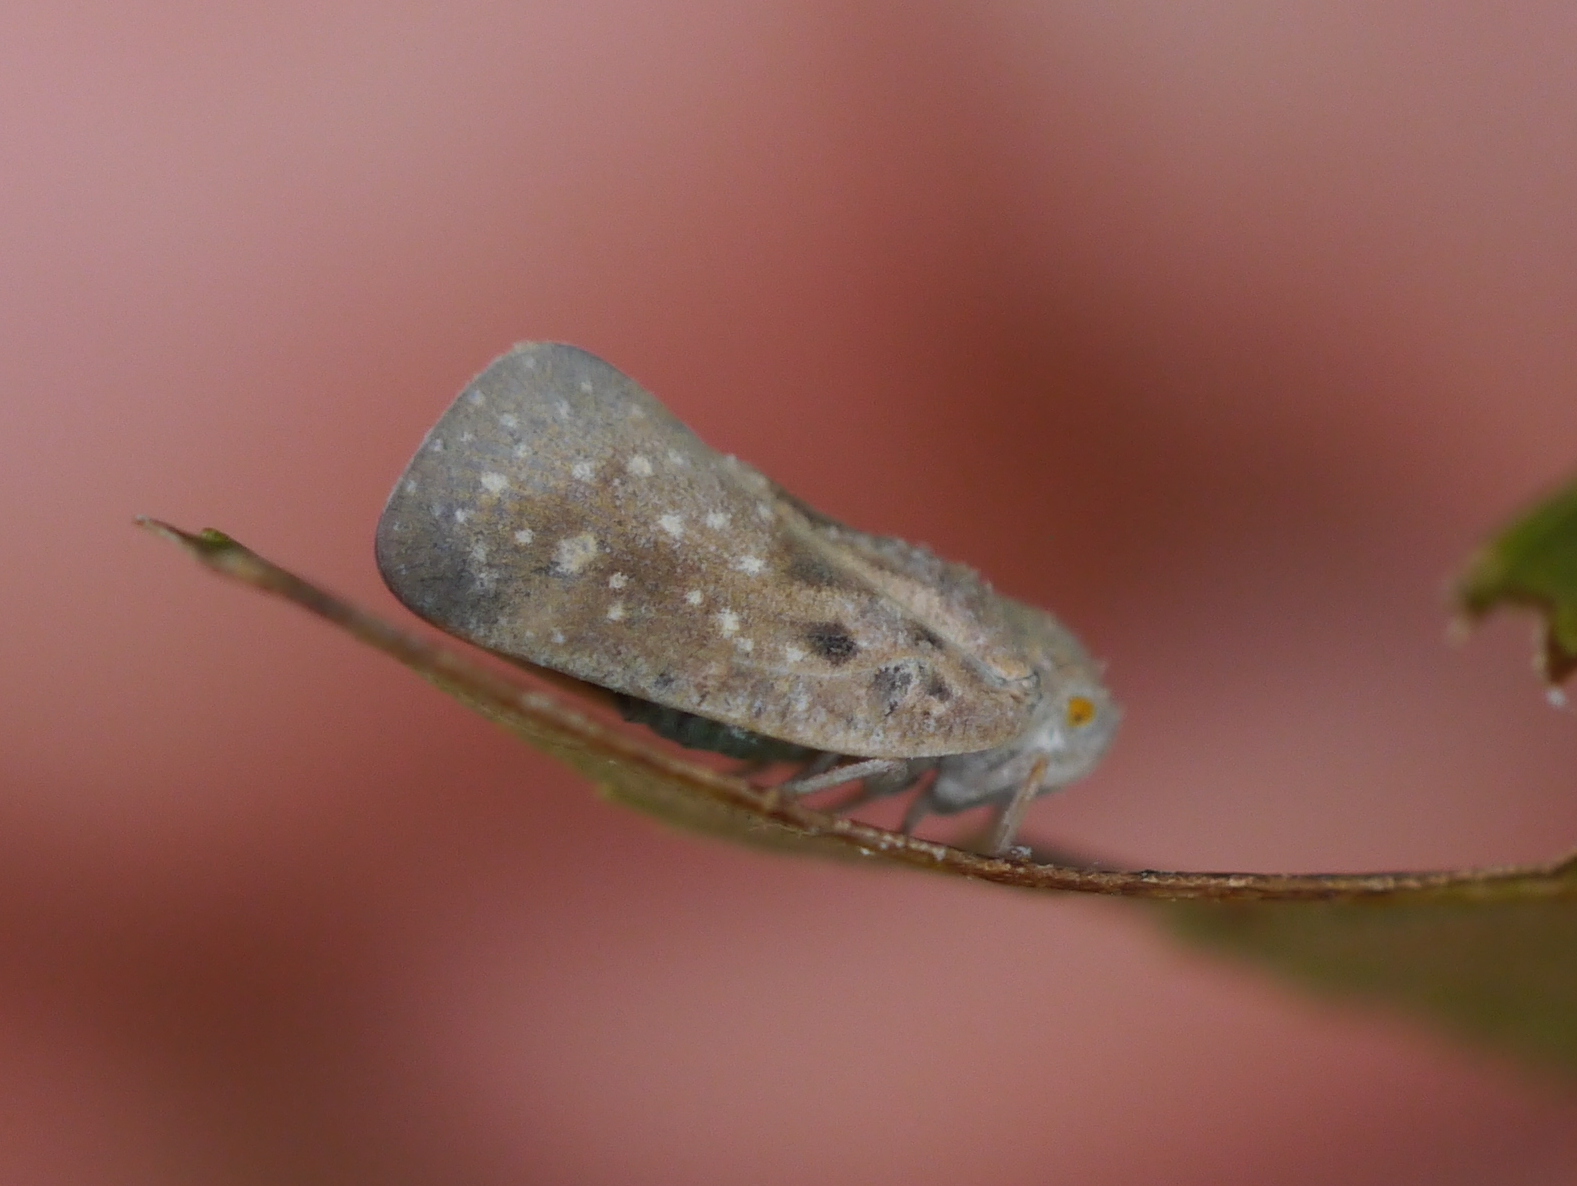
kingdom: Animalia
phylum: Arthropoda
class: Insecta
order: Hemiptera
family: Flatidae
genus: Metcalfa
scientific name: Metcalfa pruinosa
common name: Citrus flatid planthopper
